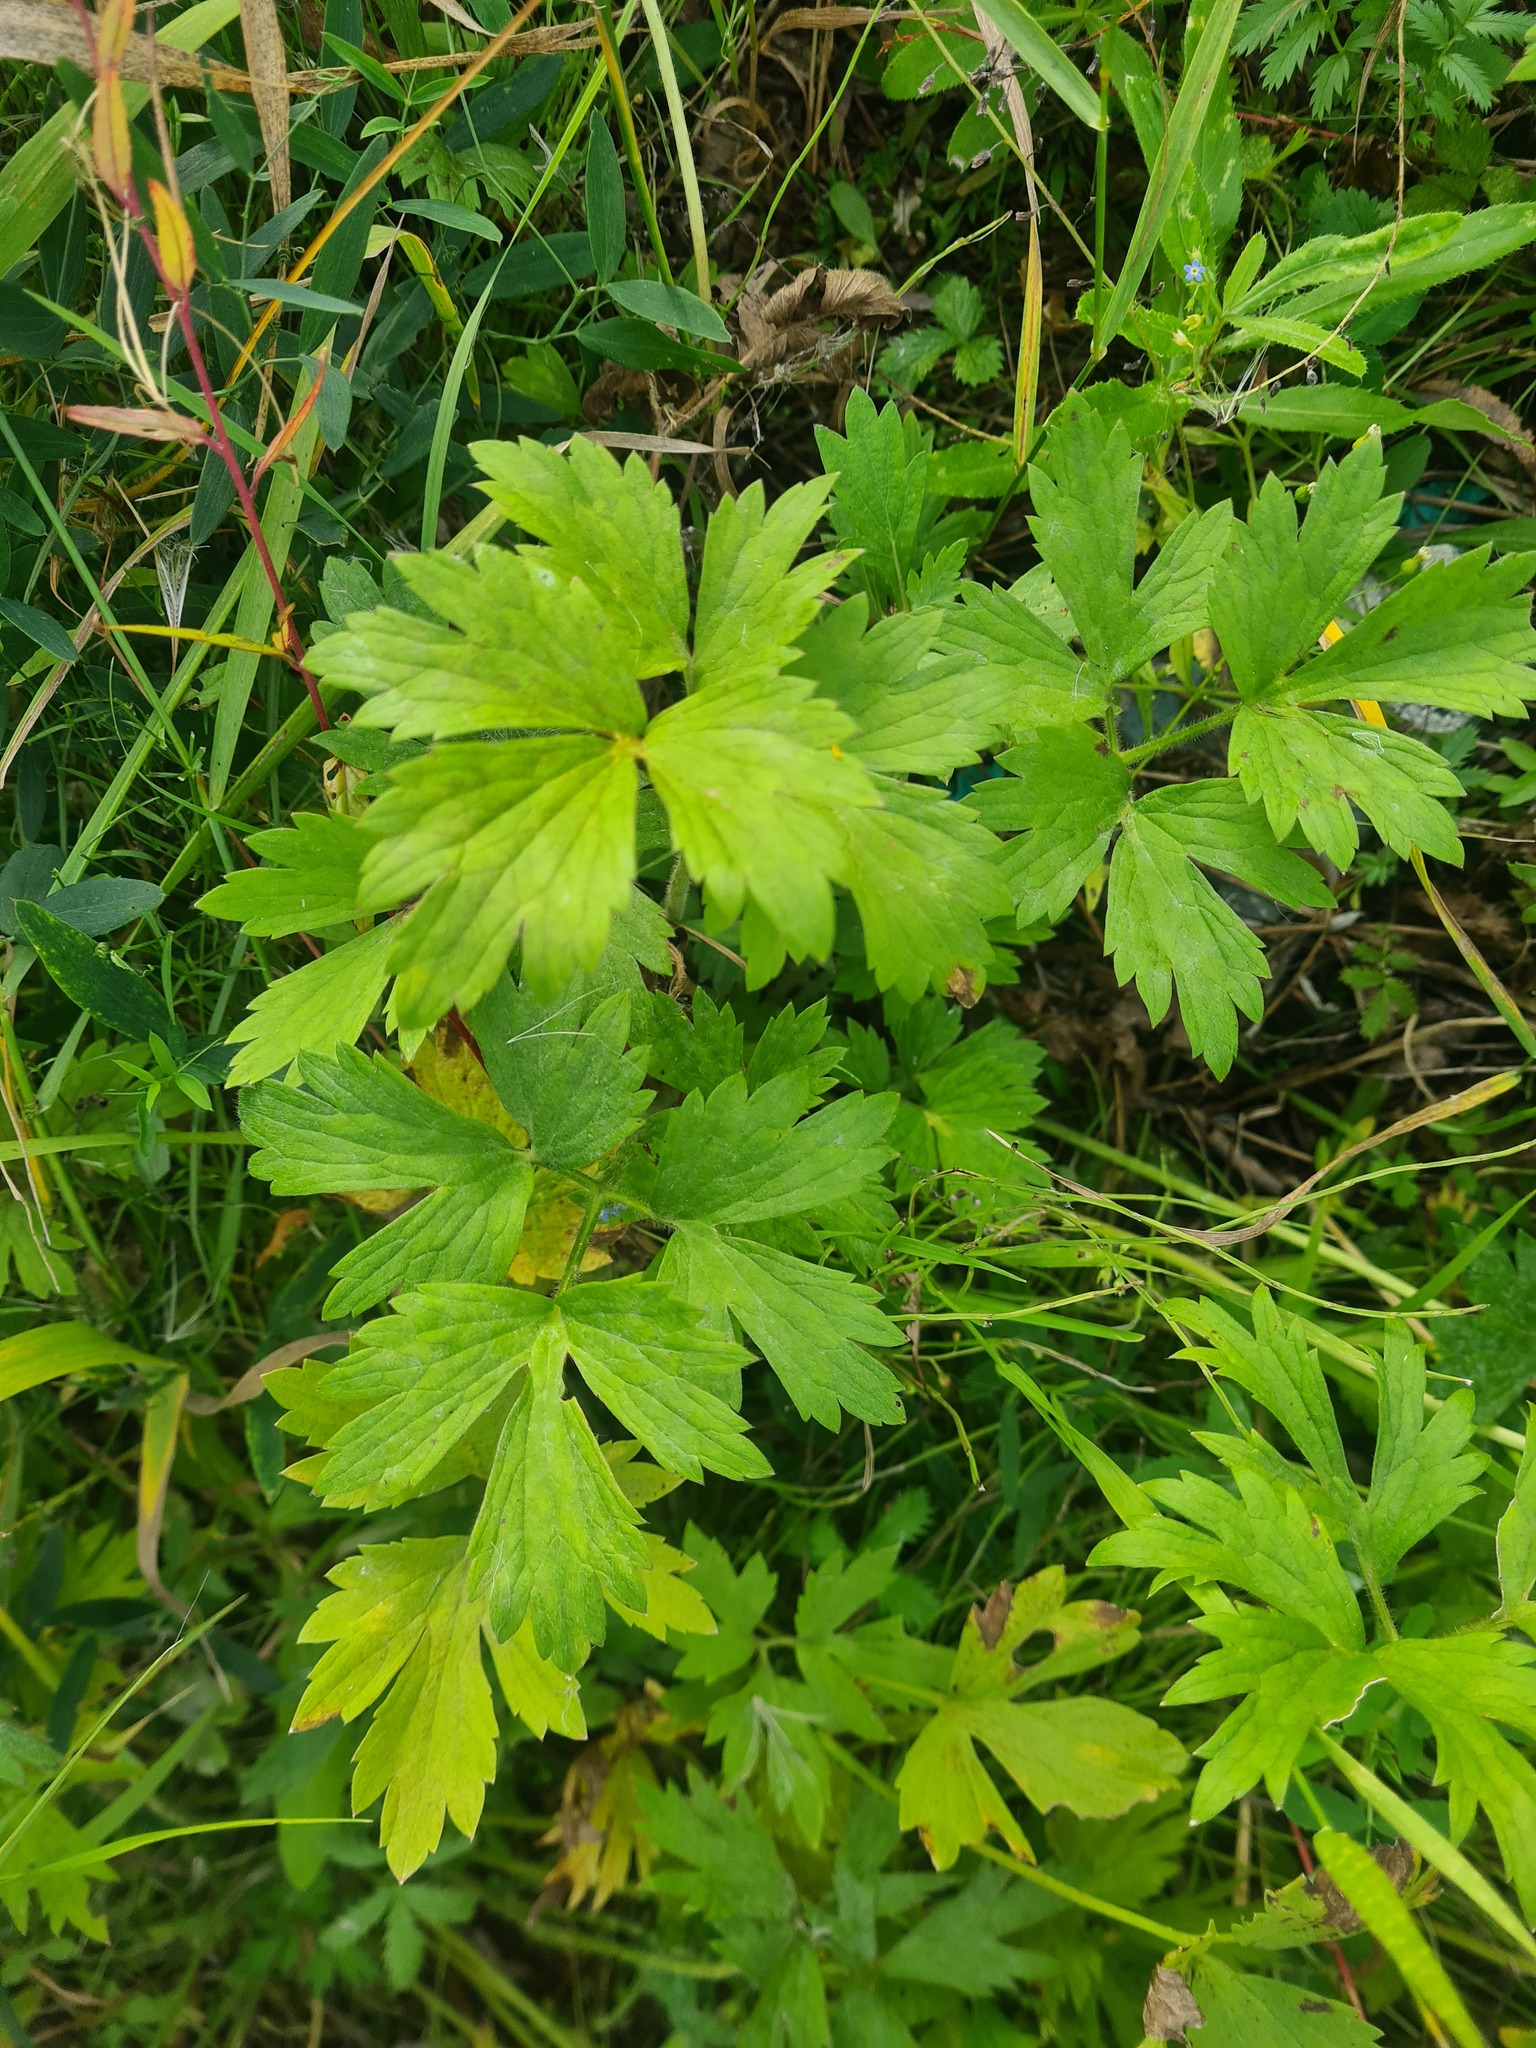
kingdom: Plantae
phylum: Tracheophyta
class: Magnoliopsida
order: Ranunculales
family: Ranunculaceae
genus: Ranunculus
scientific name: Ranunculus repens
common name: Creeping buttercup
